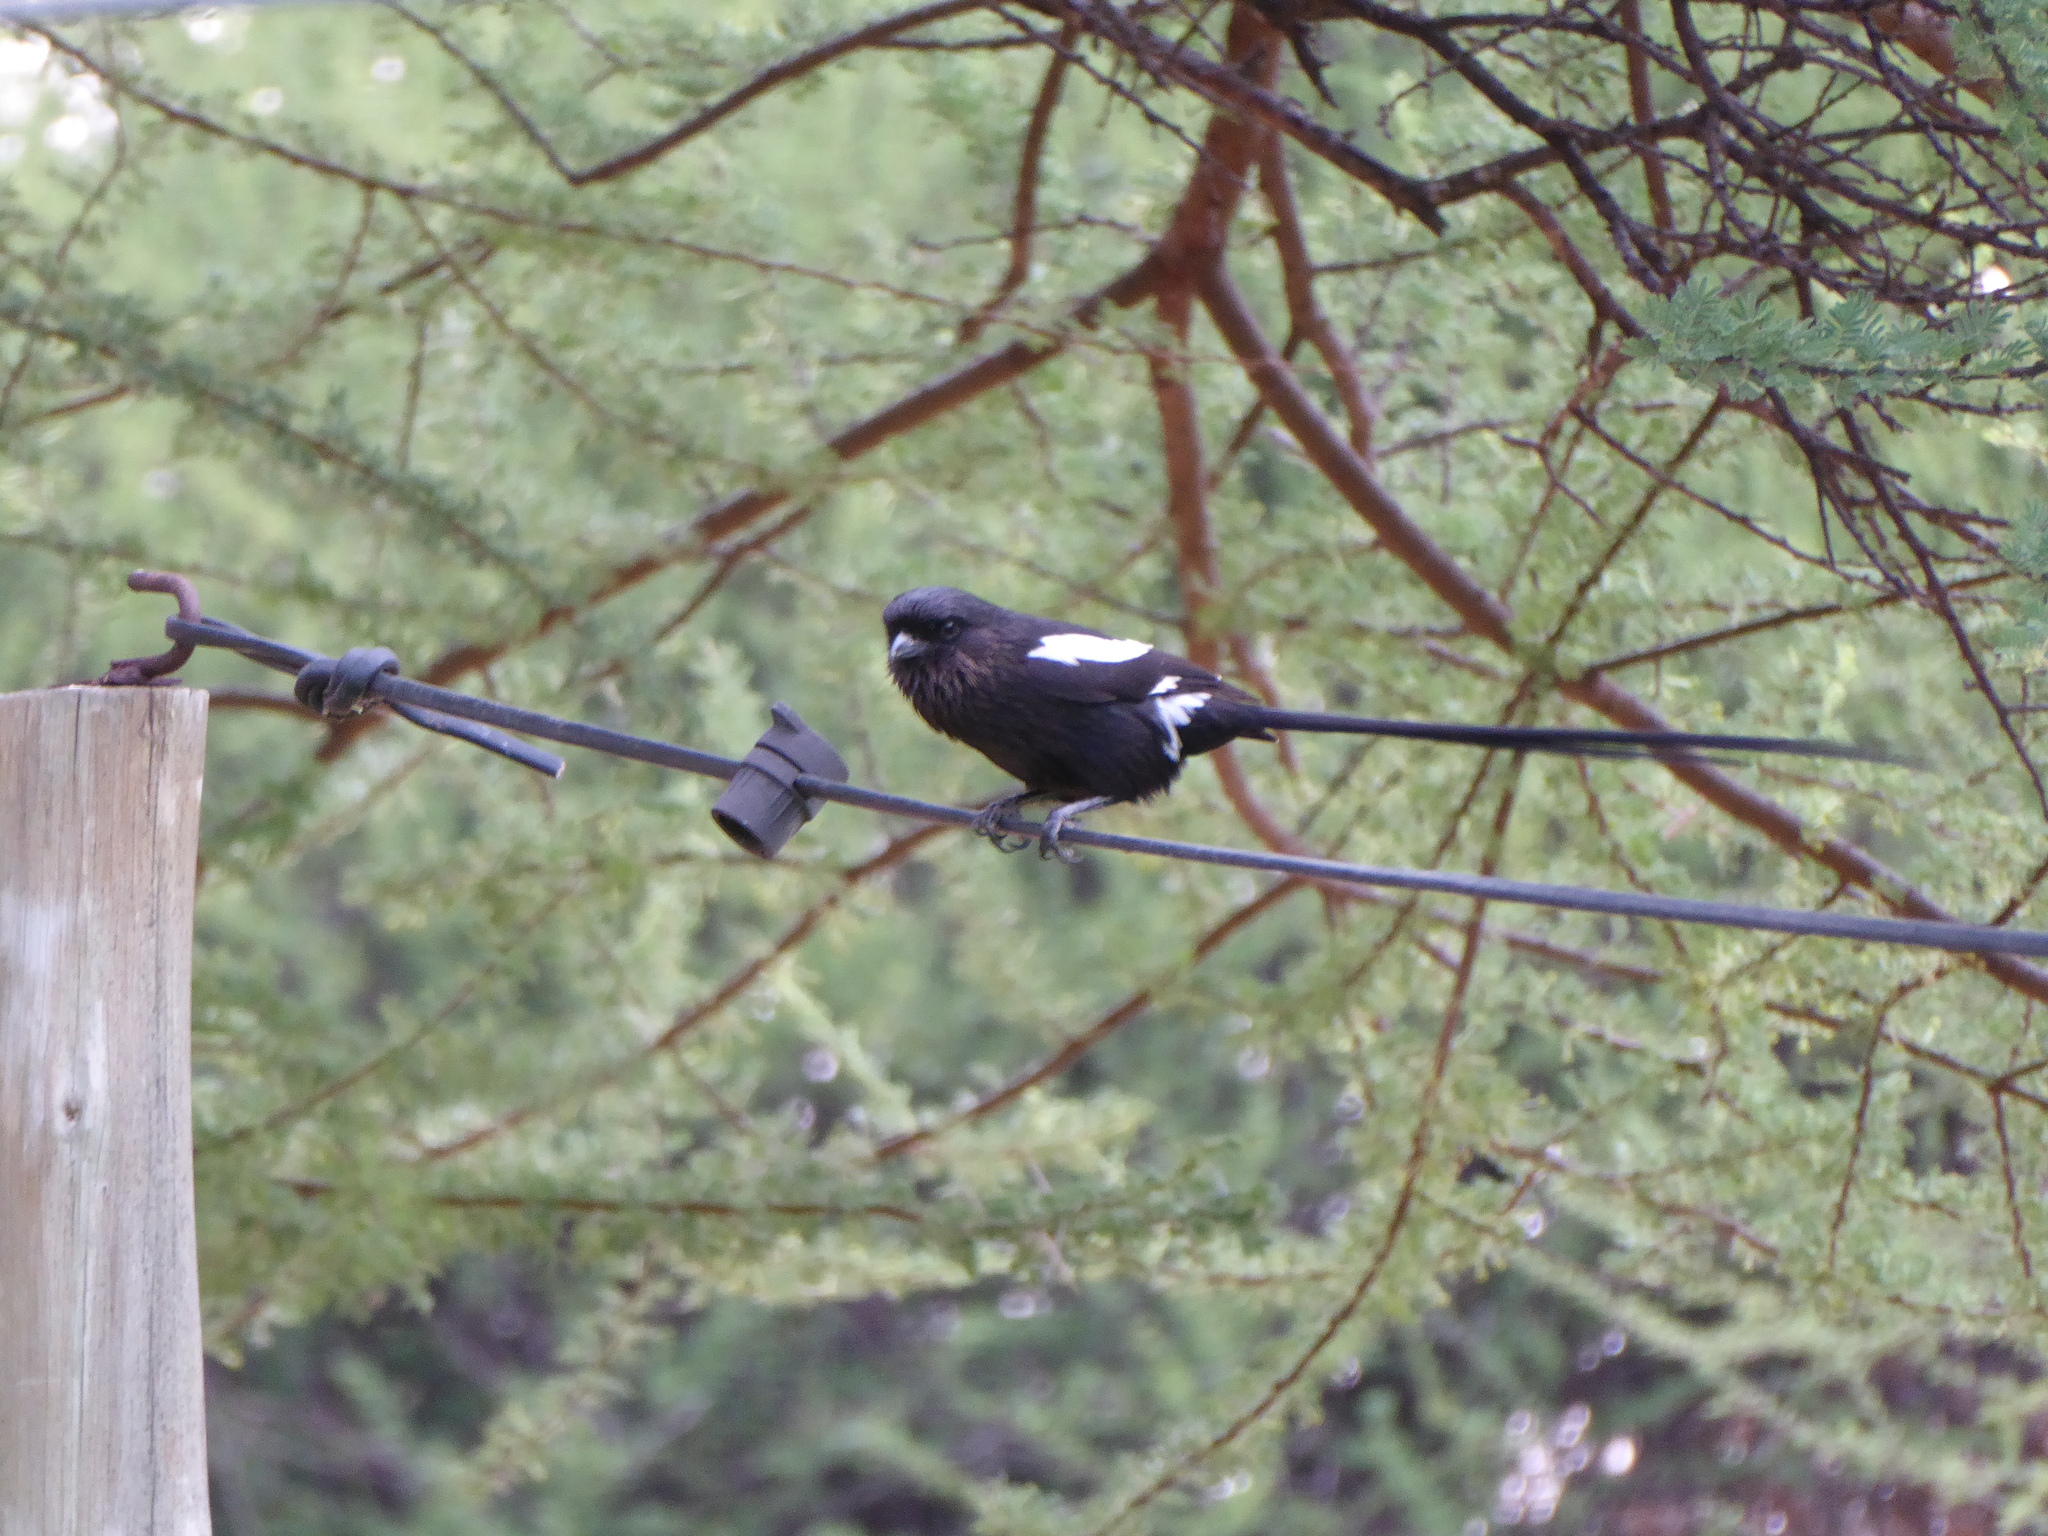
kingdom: Animalia
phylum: Chordata
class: Aves
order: Passeriformes
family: Laniidae
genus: Urolestes
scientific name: Urolestes melanoleucus
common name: Magpie shrike
